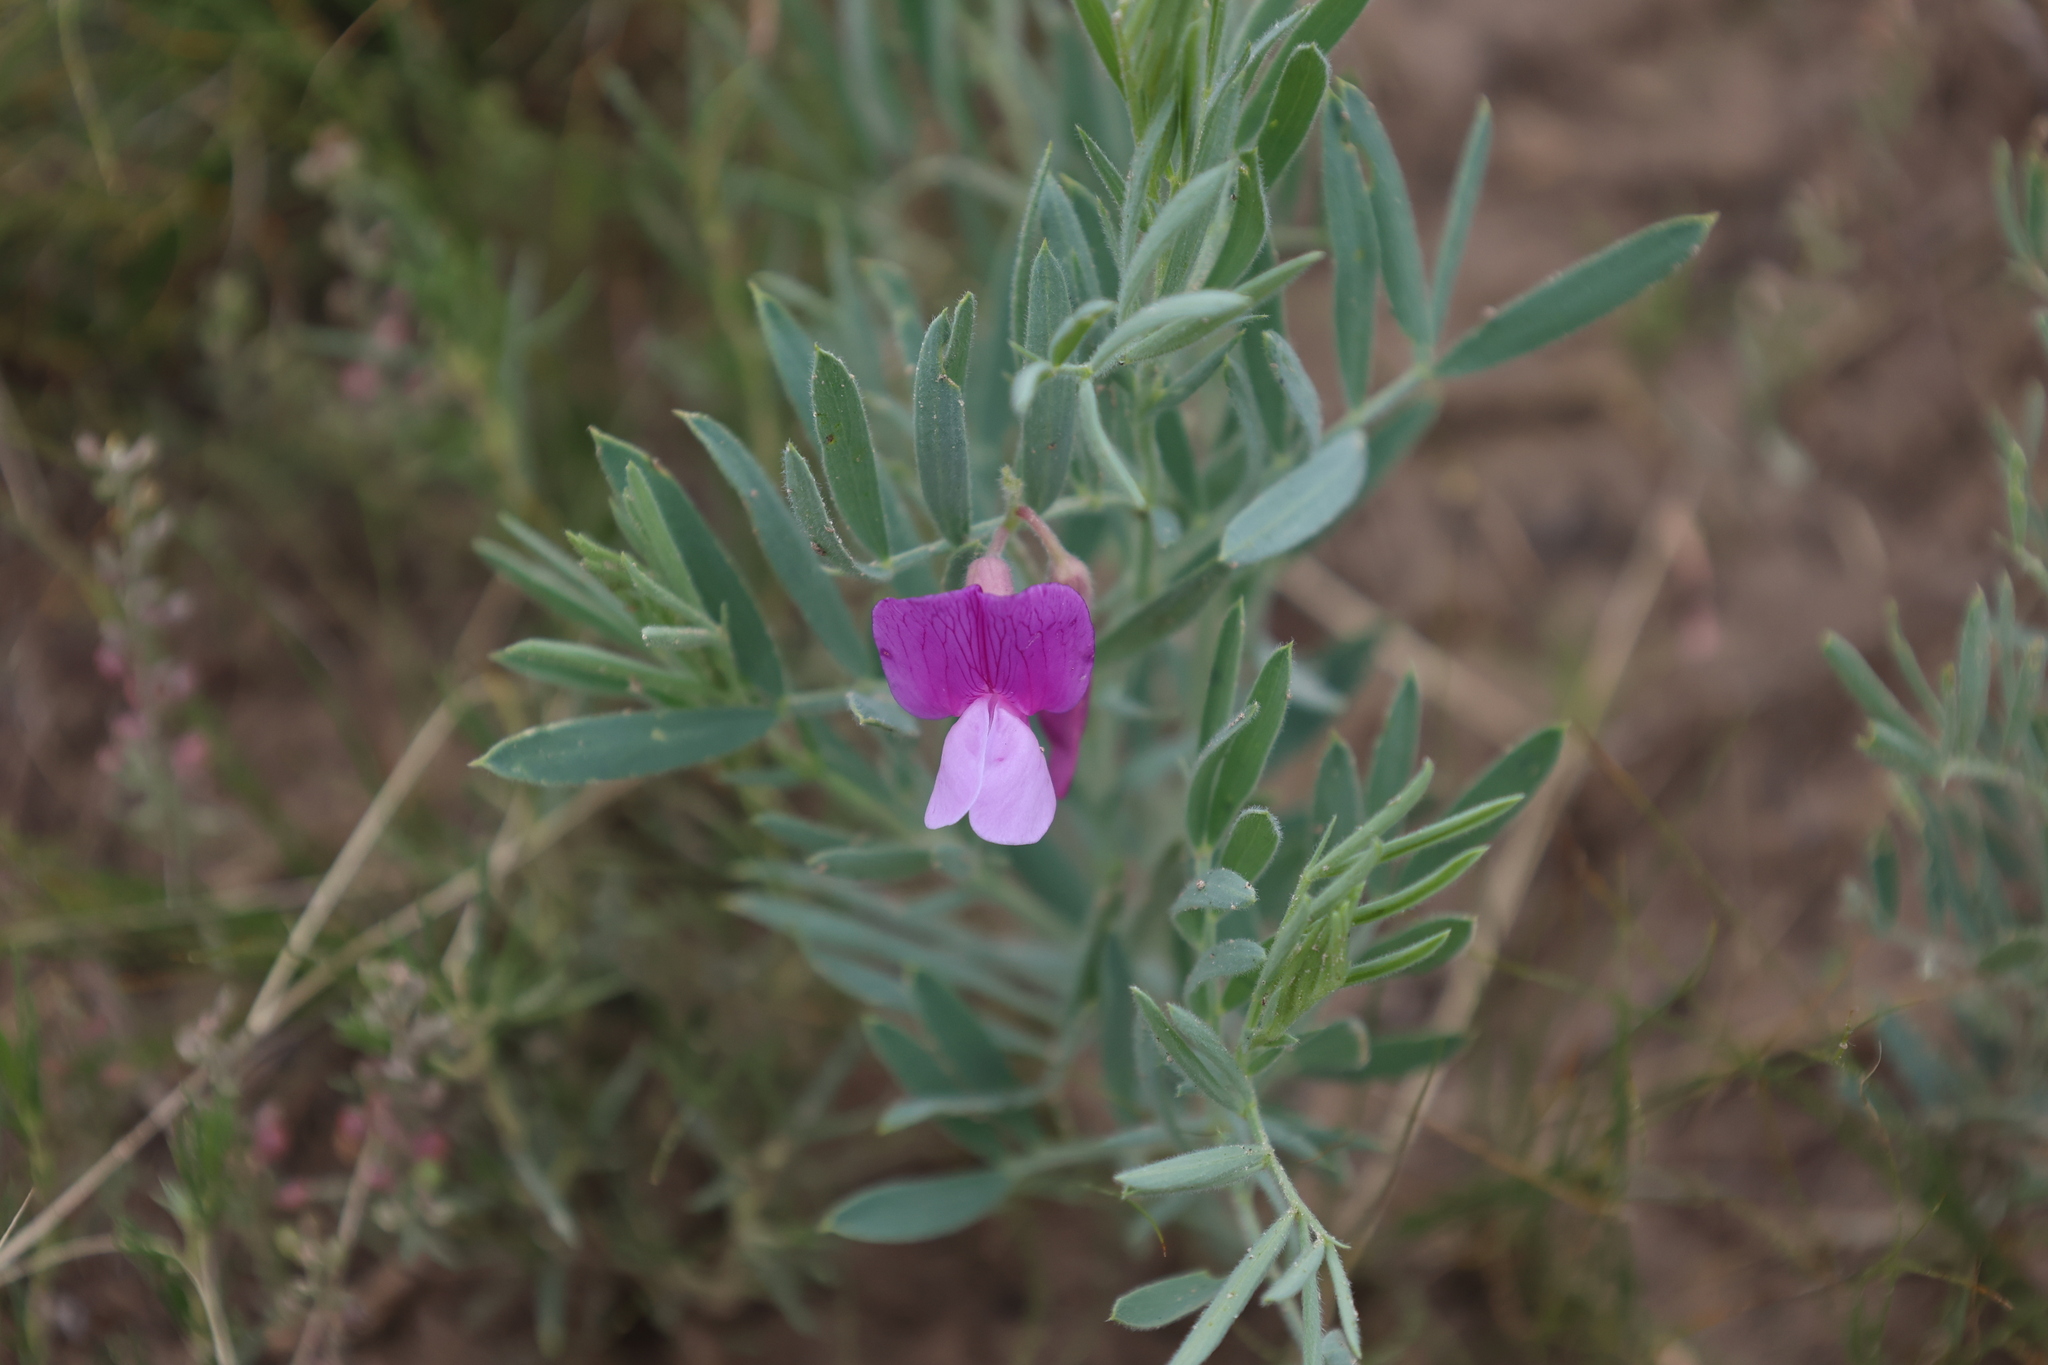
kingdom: Plantae
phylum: Tracheophyta
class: Magnoliopsida
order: Fabales
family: Fabaceae
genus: Lathyrus
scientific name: Lathyrus
